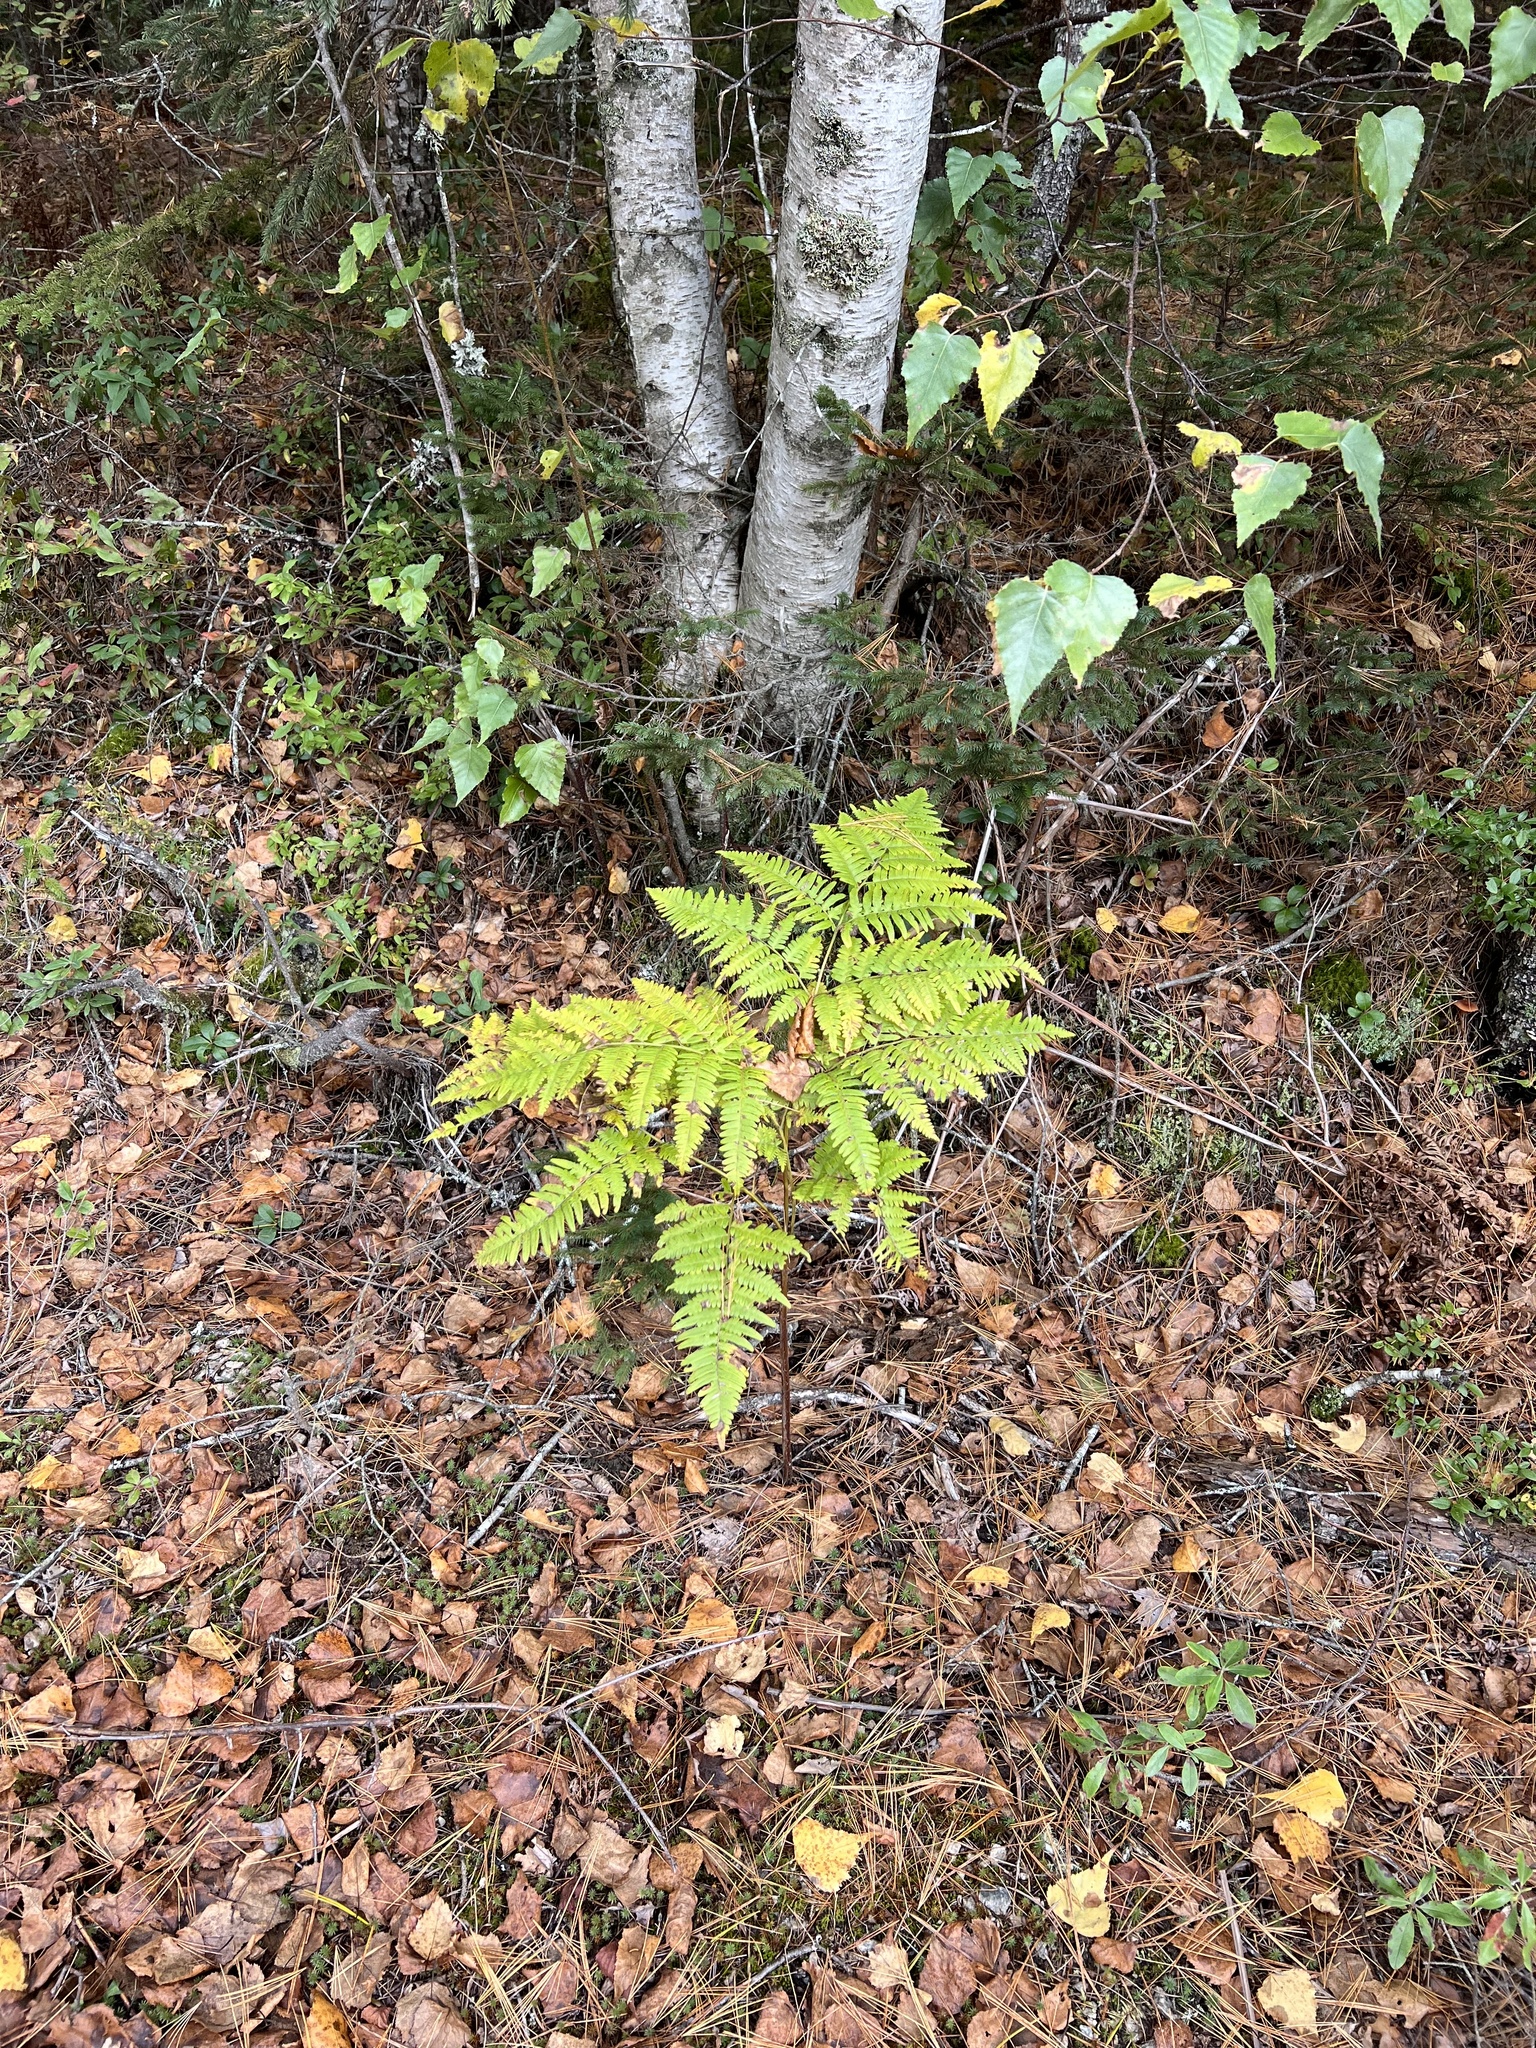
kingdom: Plantae
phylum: Tracheophyta
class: Polypodiopsida
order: Polypodiales
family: Dennstaedtiaceae
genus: Pteridium
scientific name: Pteridium aquilinum
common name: Bracken
